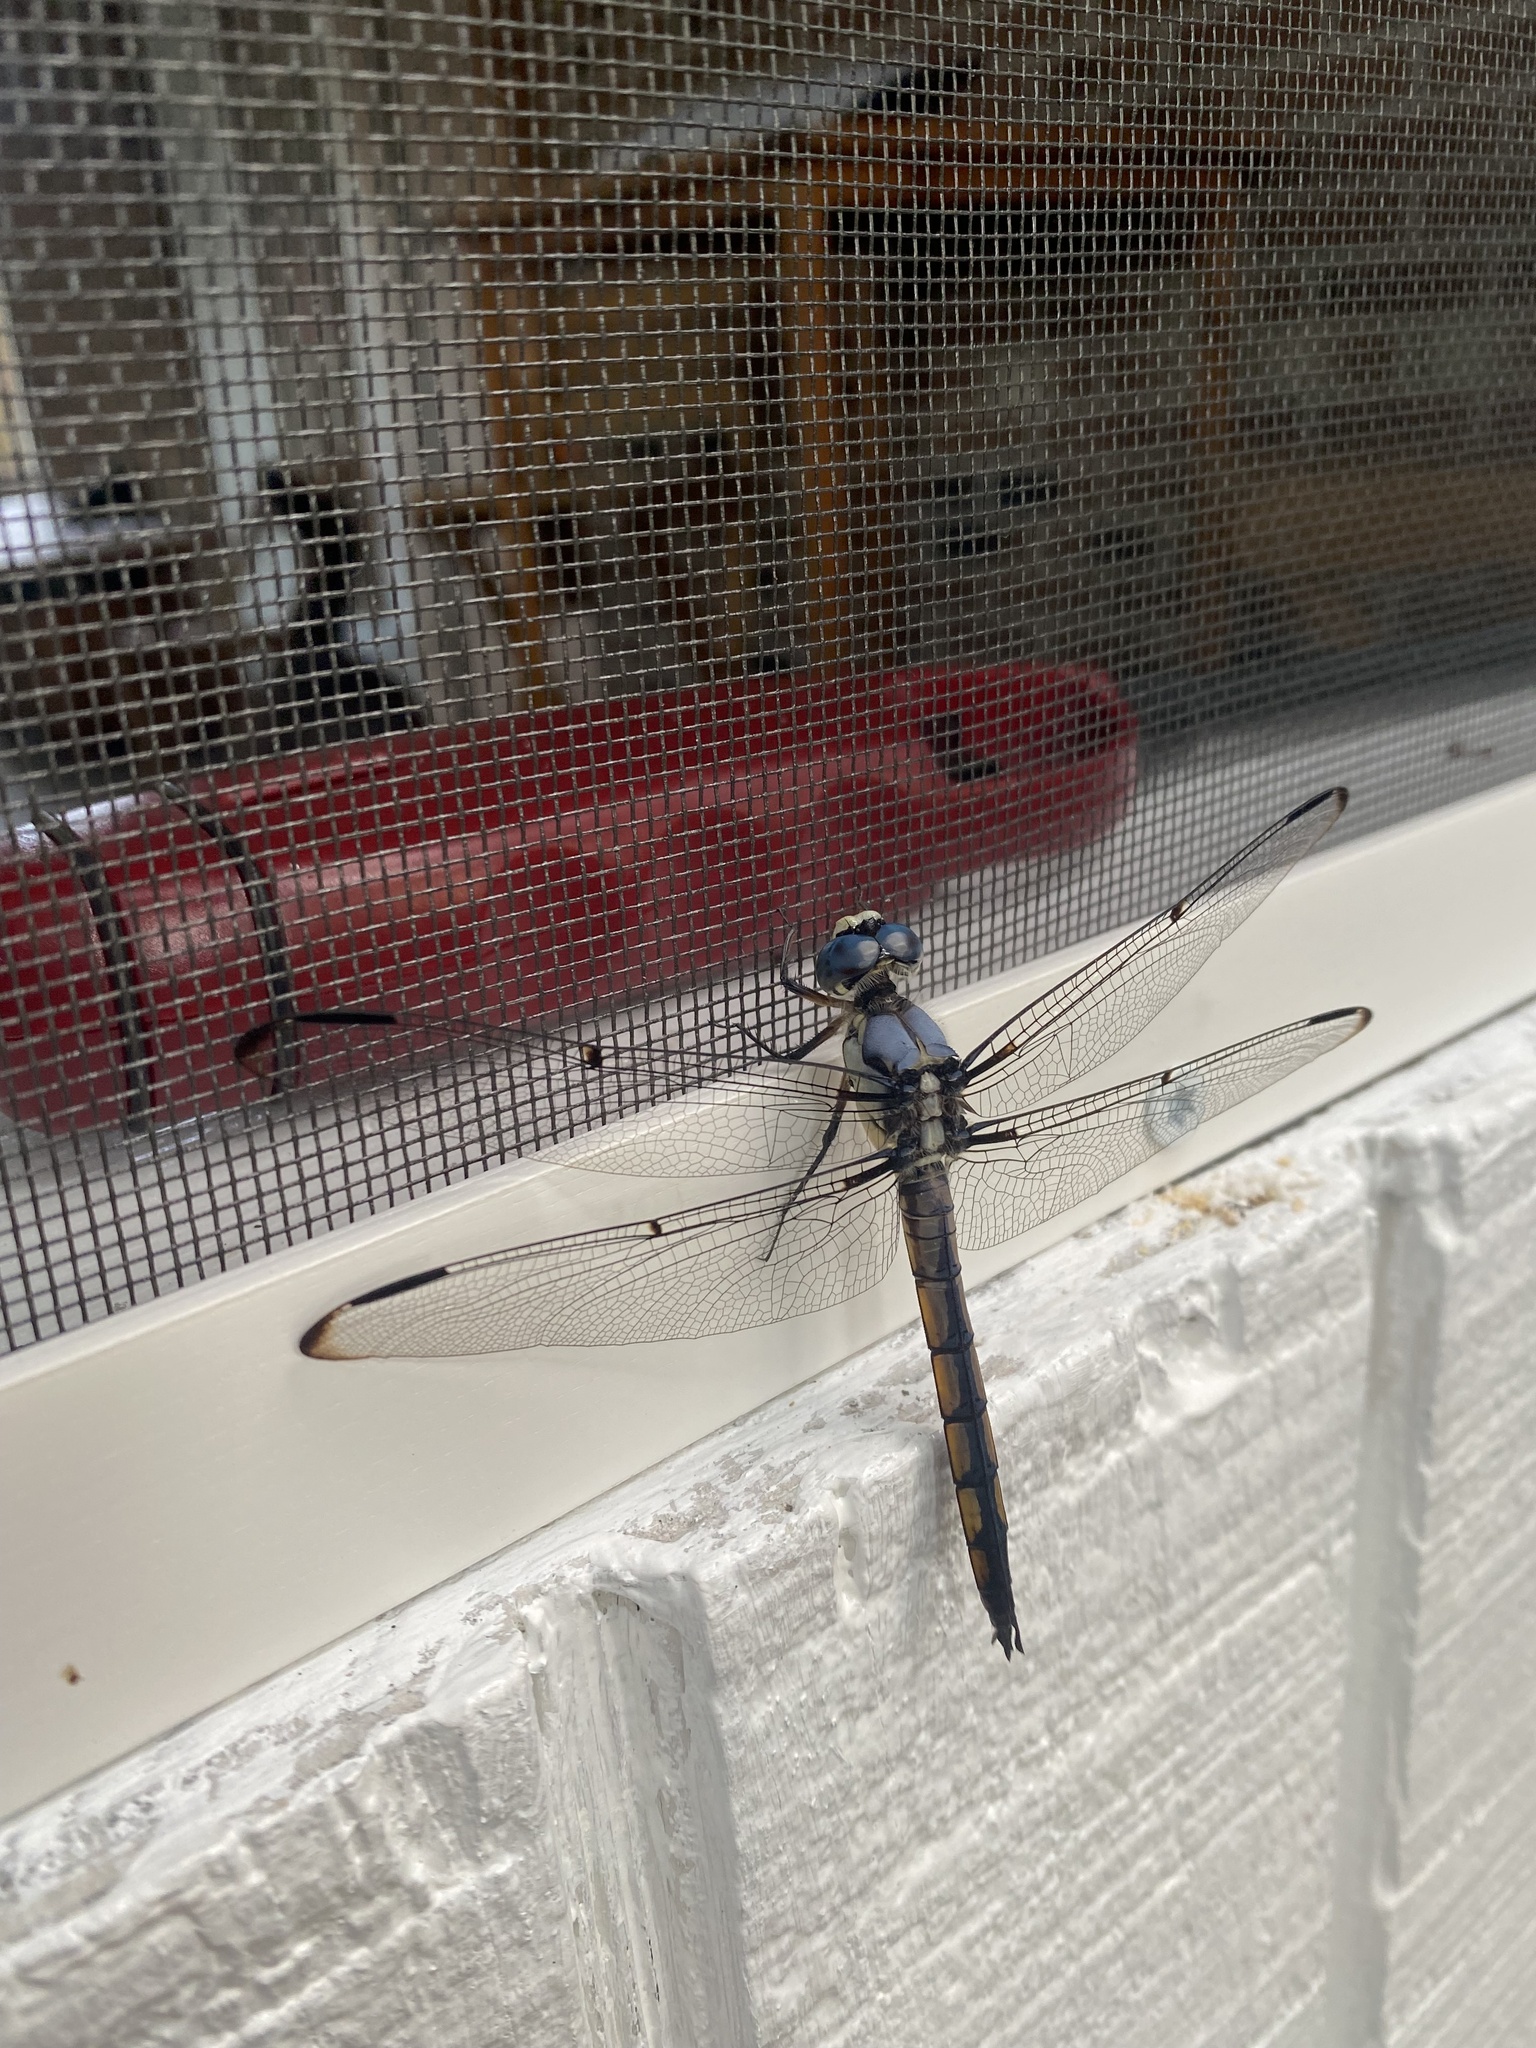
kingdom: Animalia
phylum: Arthropoda
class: Insecta
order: Odonata
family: Libellulidae
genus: Libellula
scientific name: Libellula vibrans
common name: Great blue skimmer
